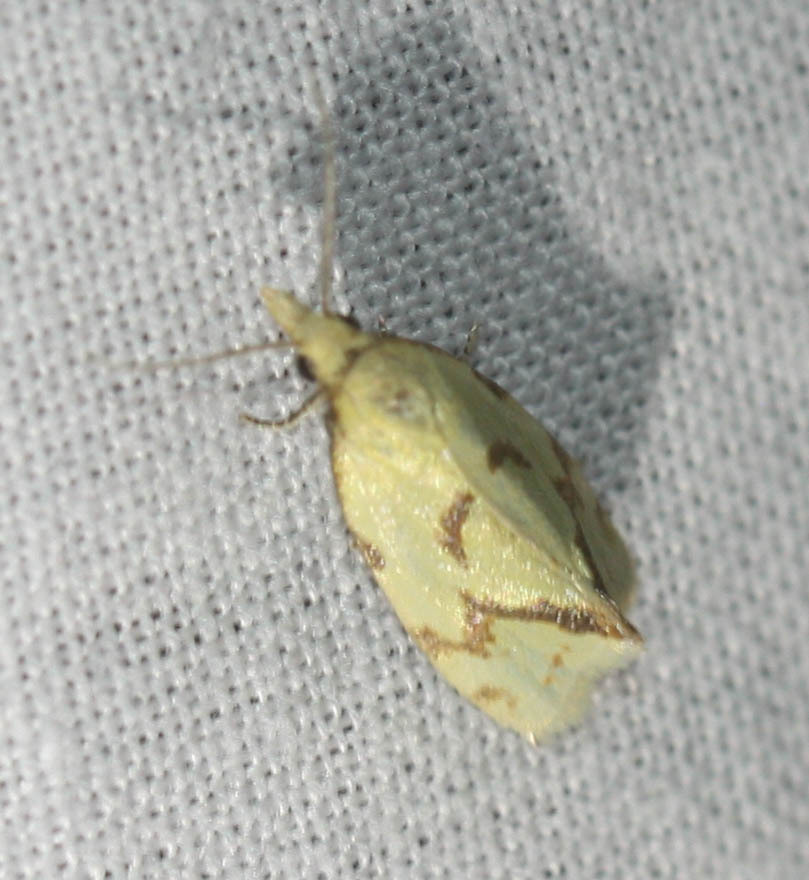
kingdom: Animalia
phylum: Arthropoda
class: Insecta
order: Lepidoptera
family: Tortricidae
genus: Agapeta
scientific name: Agapeta hamana
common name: Common yellow conch
